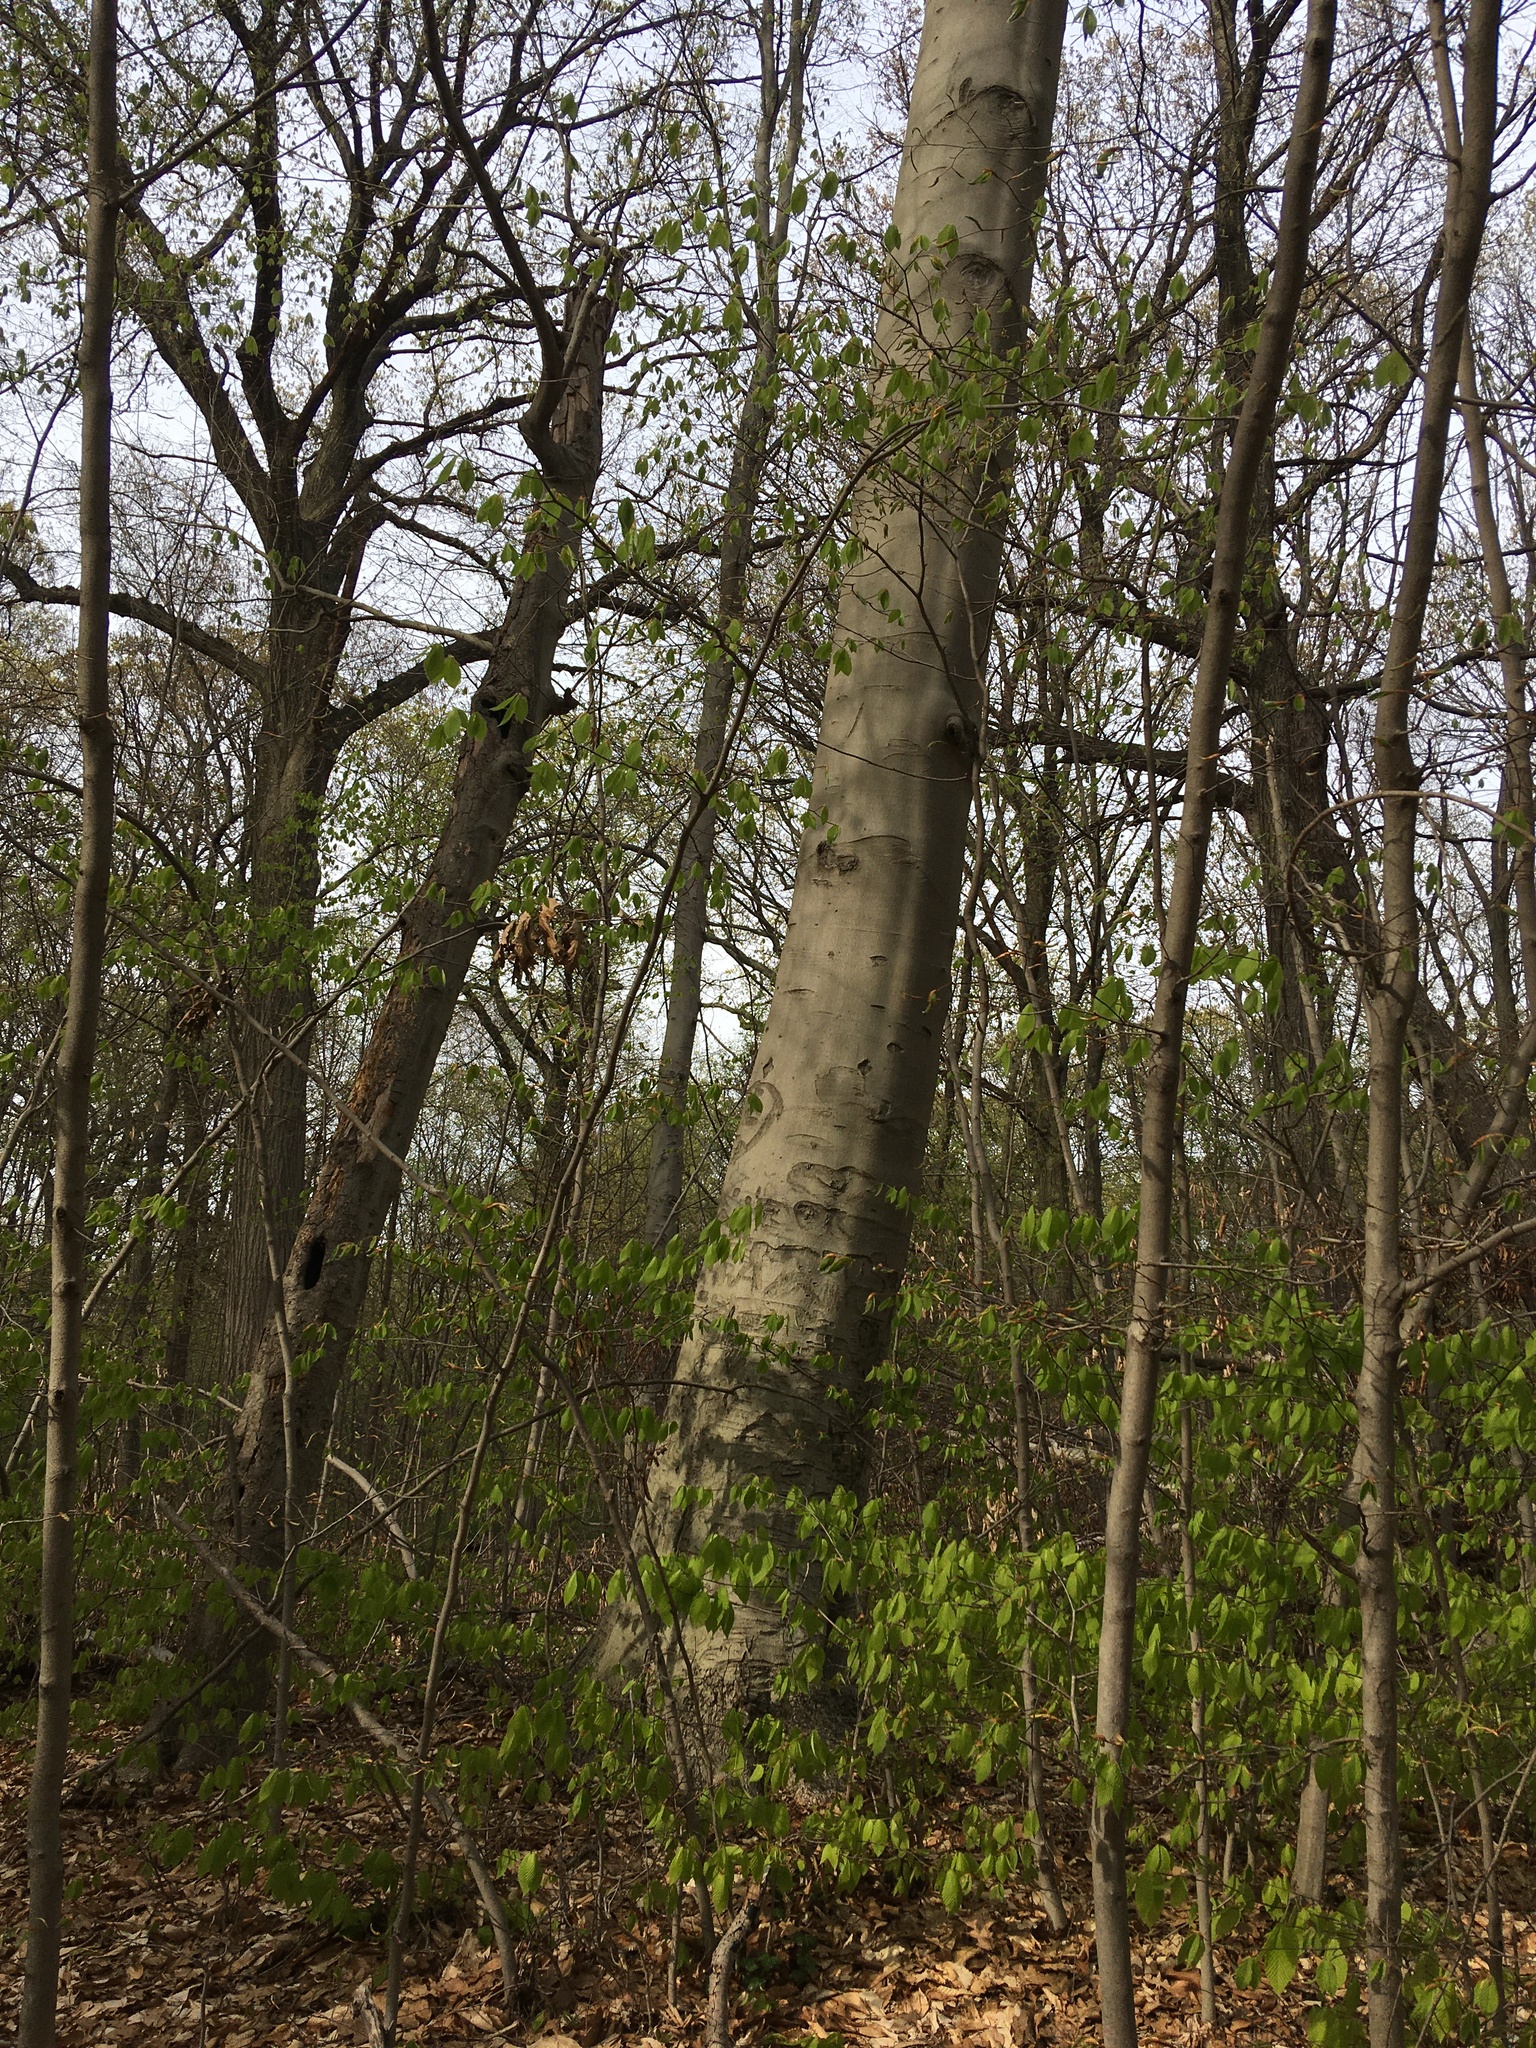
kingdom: Plantae
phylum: Tracheophyta
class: Magnoliopsida
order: Fagales
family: Fagaceae
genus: Fagus
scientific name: Fagus grandifolia
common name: American beech
